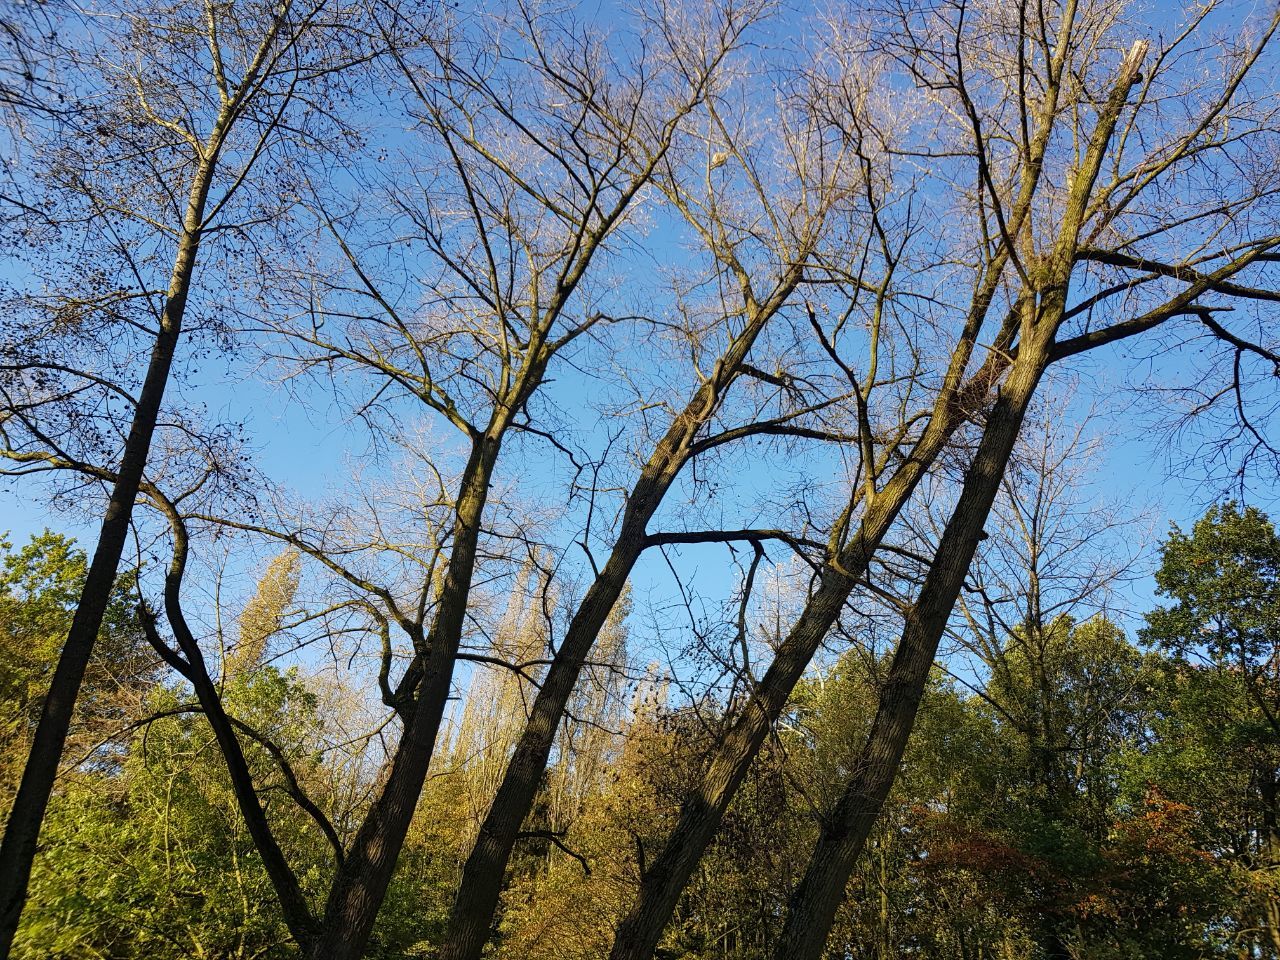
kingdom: Animalia
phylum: Arthropoda
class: Insecta
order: Hymenoptera
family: Vespidae
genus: Vespa
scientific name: Vespa velutina
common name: Asian hornet
